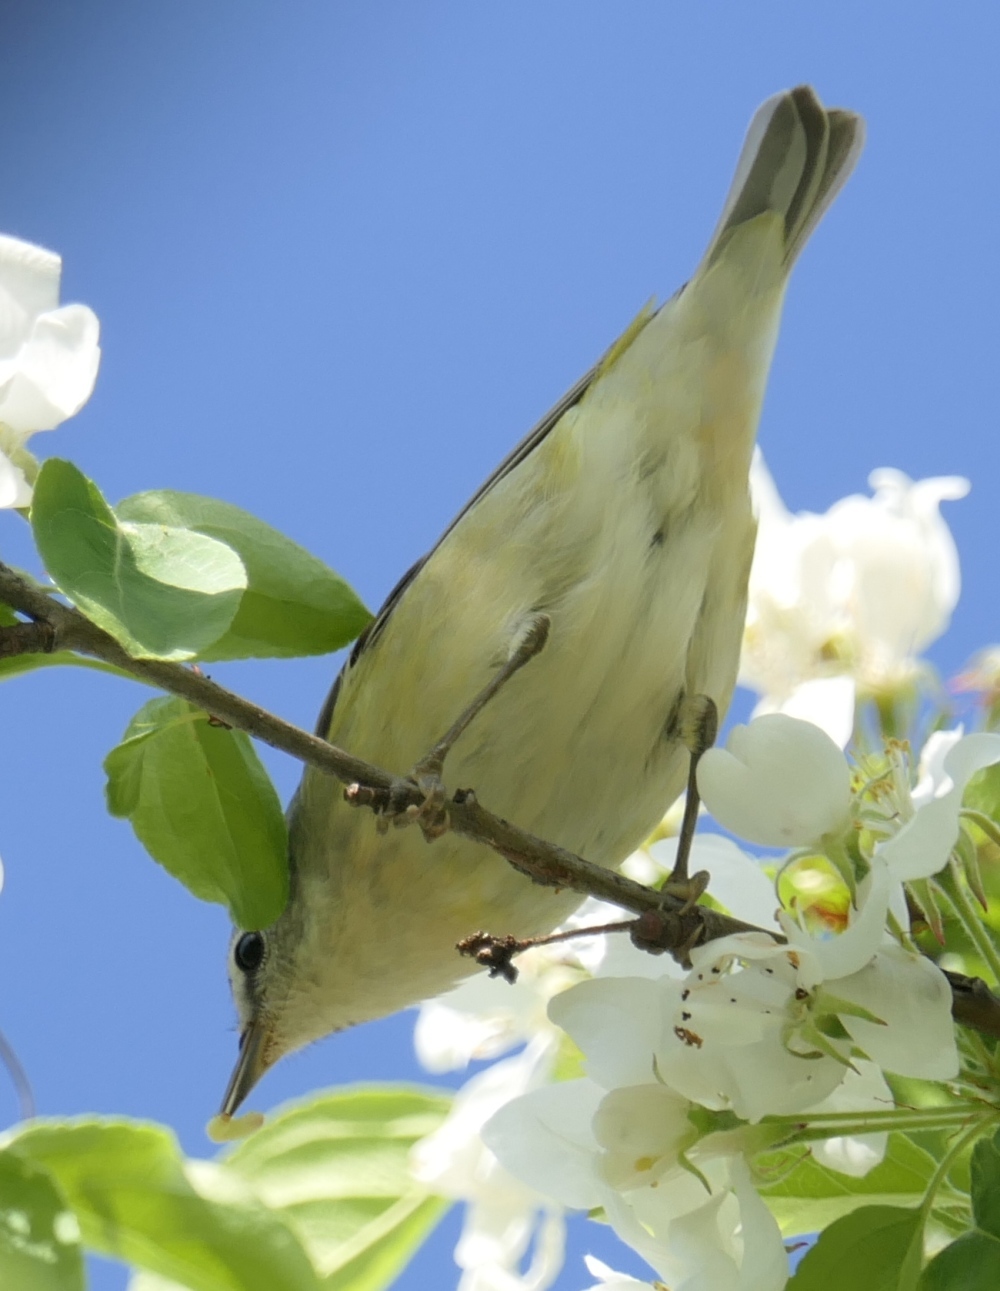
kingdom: Animalia
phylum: Chordata
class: Aves
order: Passeriformes
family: Parulidae
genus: Leiothlypis
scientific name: Leiothlypis peregrina
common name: Tennessee warbler
